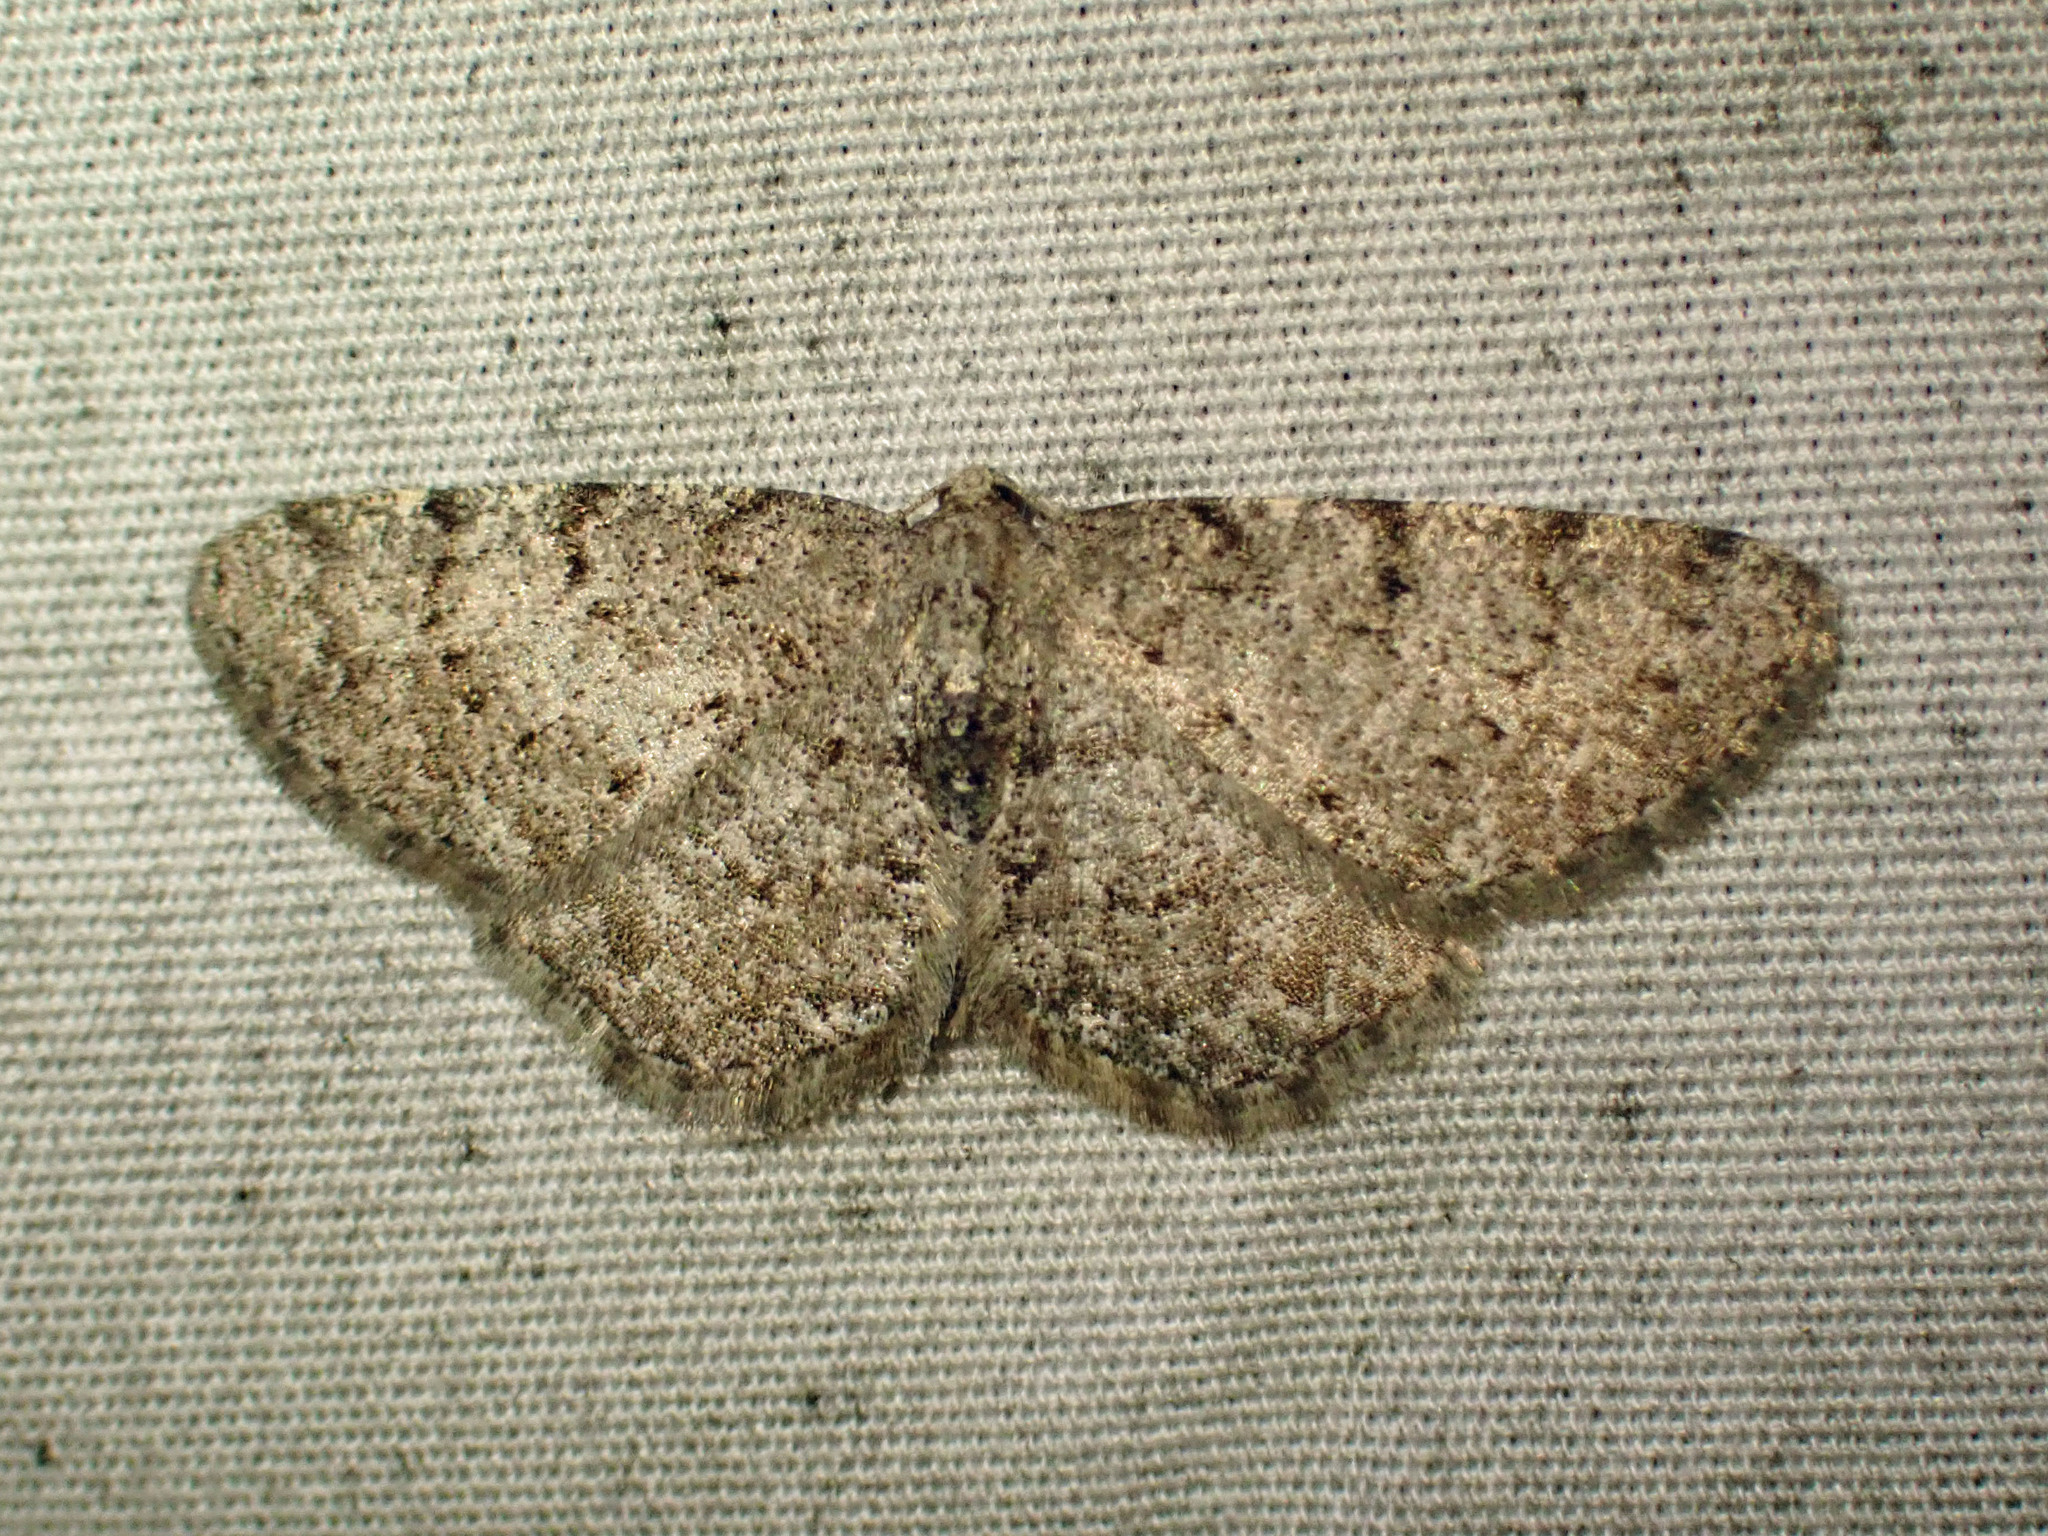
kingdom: Animalia
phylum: Arthropoda
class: Insecta
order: Lepidoptera
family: Geometridae
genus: Aethalura
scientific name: Aethalura intertexta
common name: Four-barred gray
